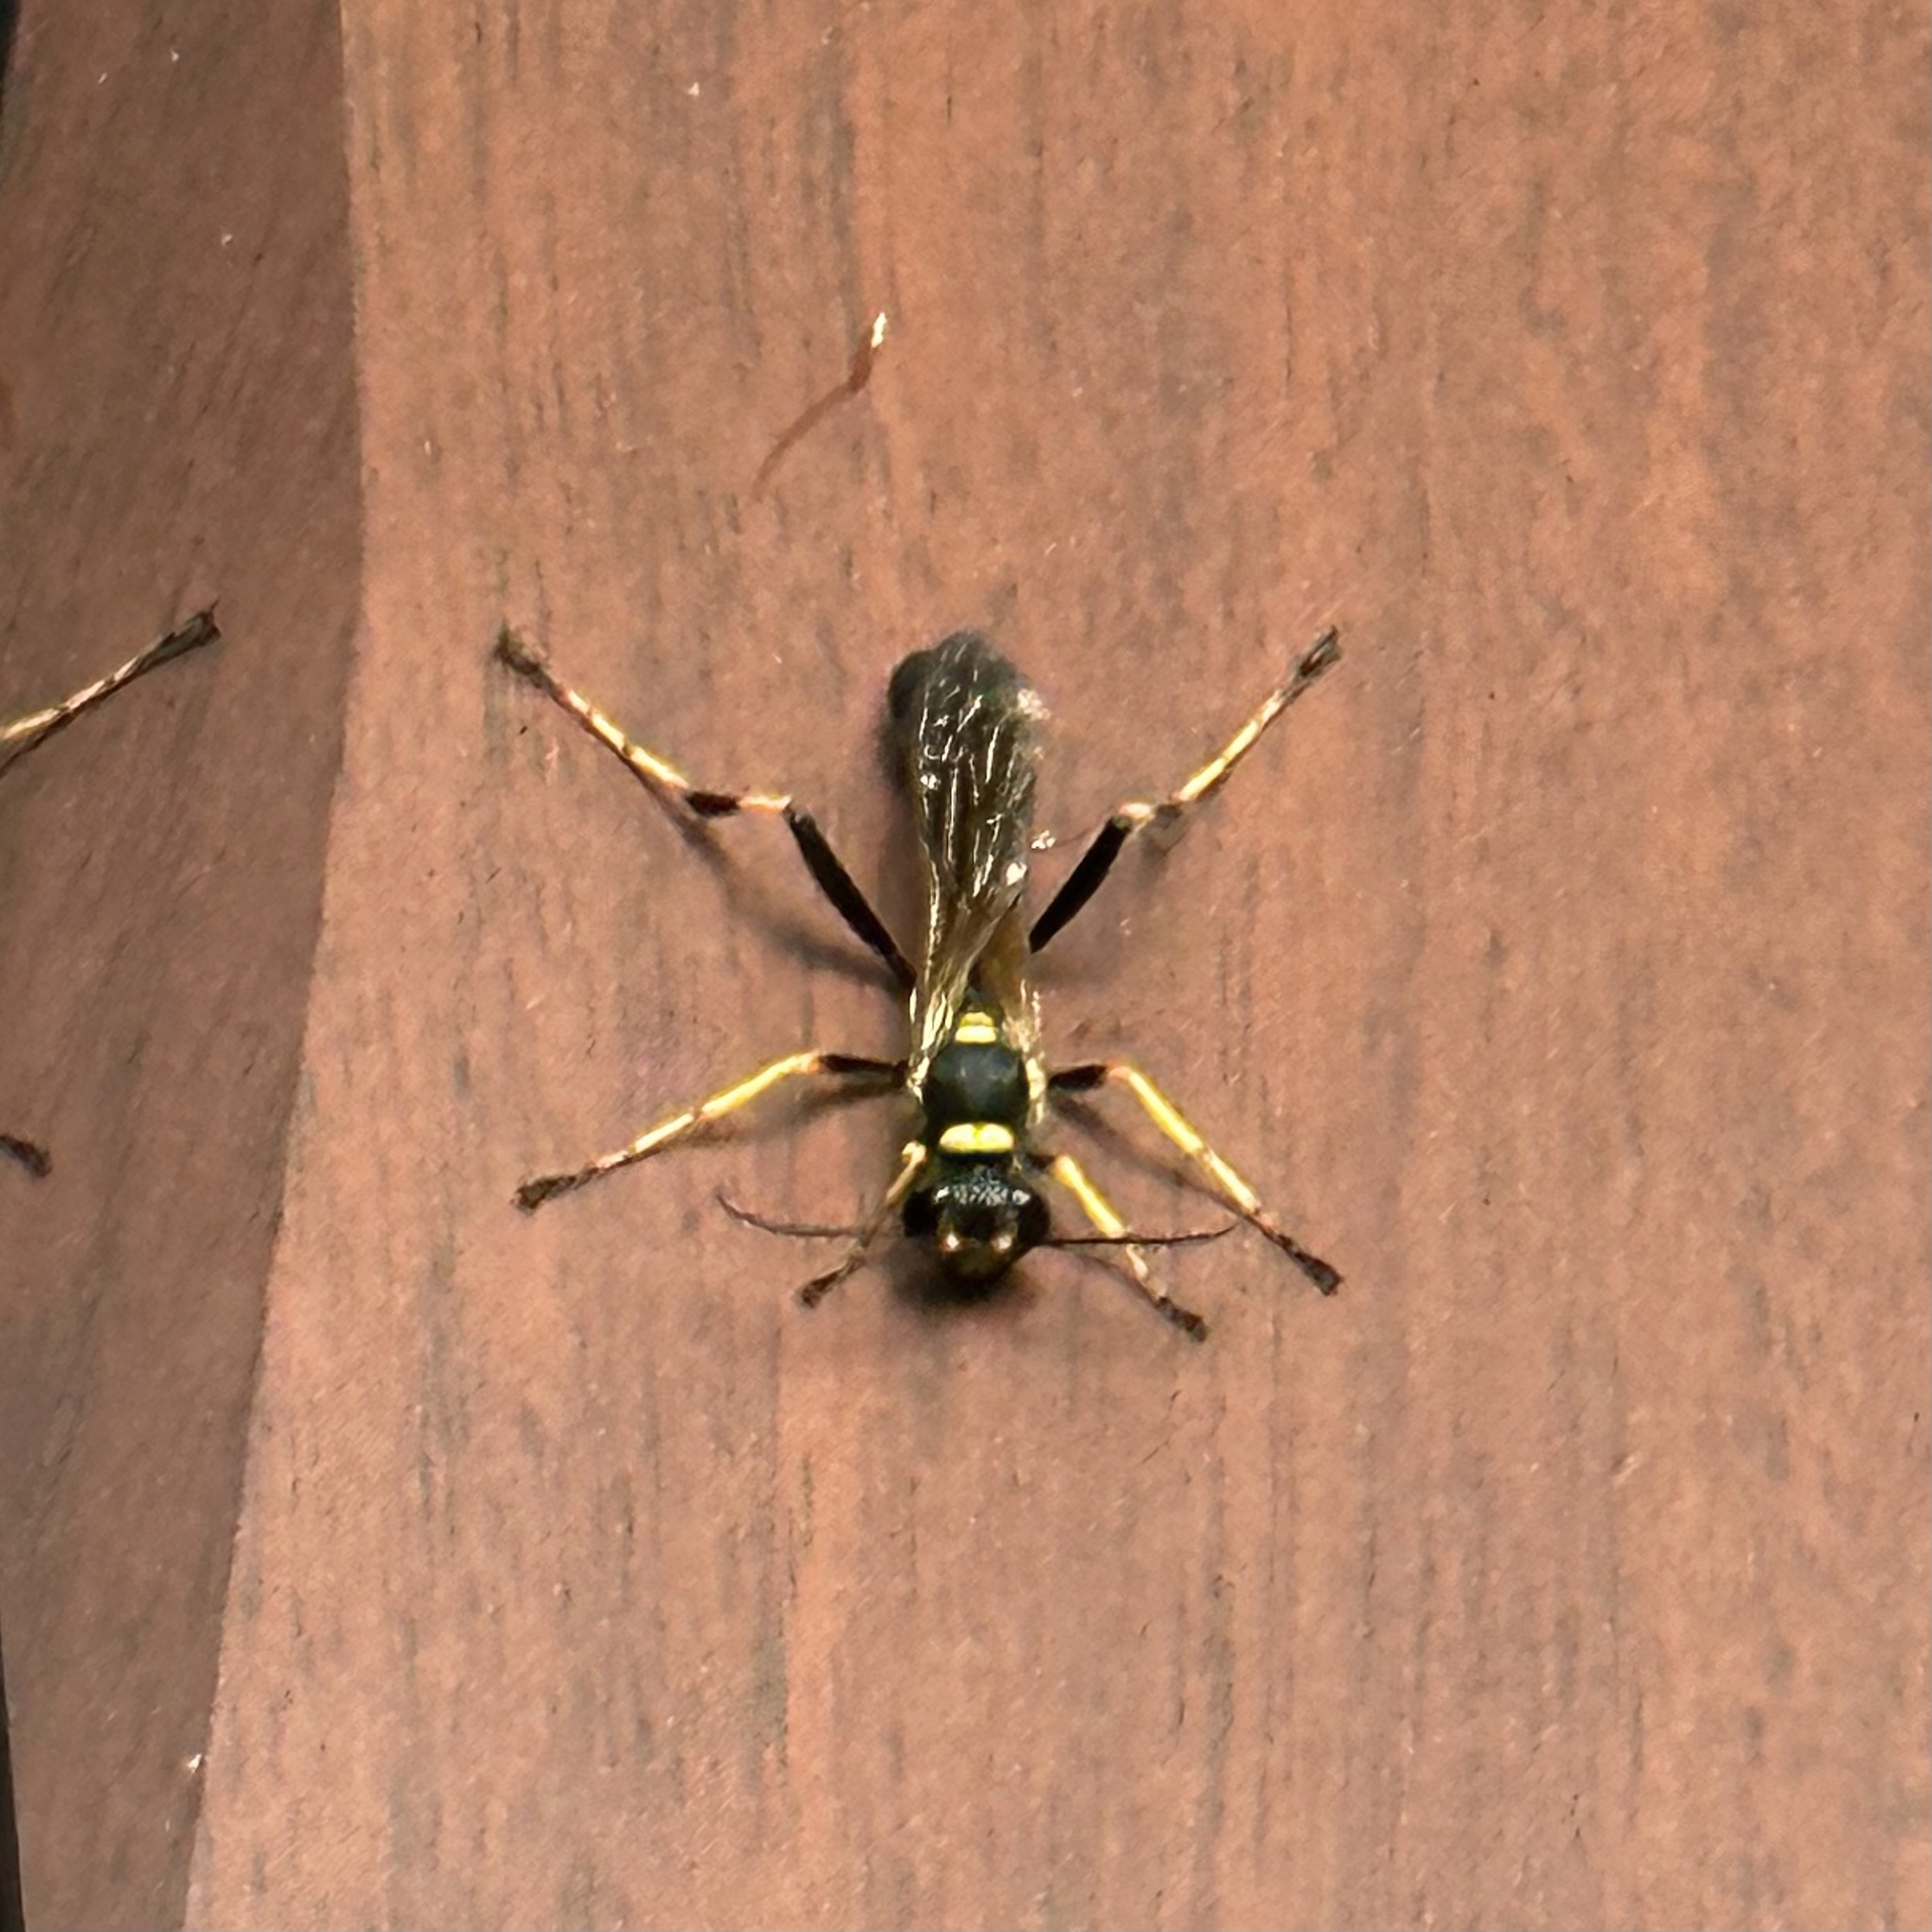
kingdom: Animalia
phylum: Arthropoda
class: Insecta
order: Hymenoptera
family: Sphecidae
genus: Sceliphron
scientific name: Sceliphron caementarium
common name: Mud dauber
